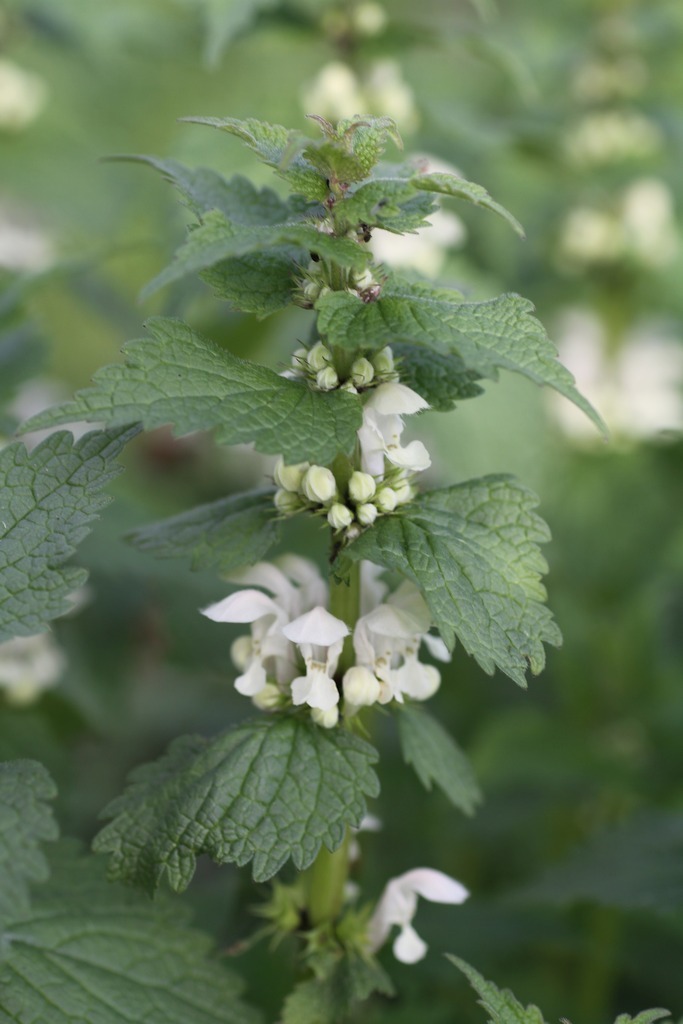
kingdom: Plantae
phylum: Tracheophyta
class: Magnoliopsida
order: Lamiales
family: Lamiaceae
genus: Lamium
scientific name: Lamium album
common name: White dead-nettle
